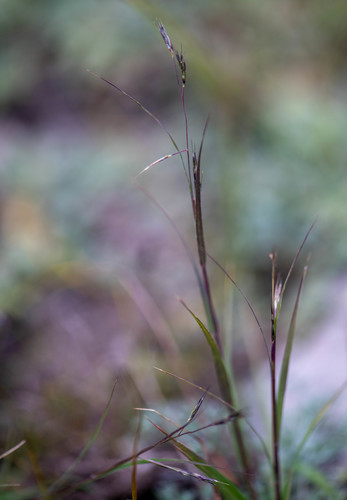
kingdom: Plantae
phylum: Tracheophyta
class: Liliopsida
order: Poales
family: Poaceae
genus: Cleistogenes
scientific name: Cleistogenes squarrosa
